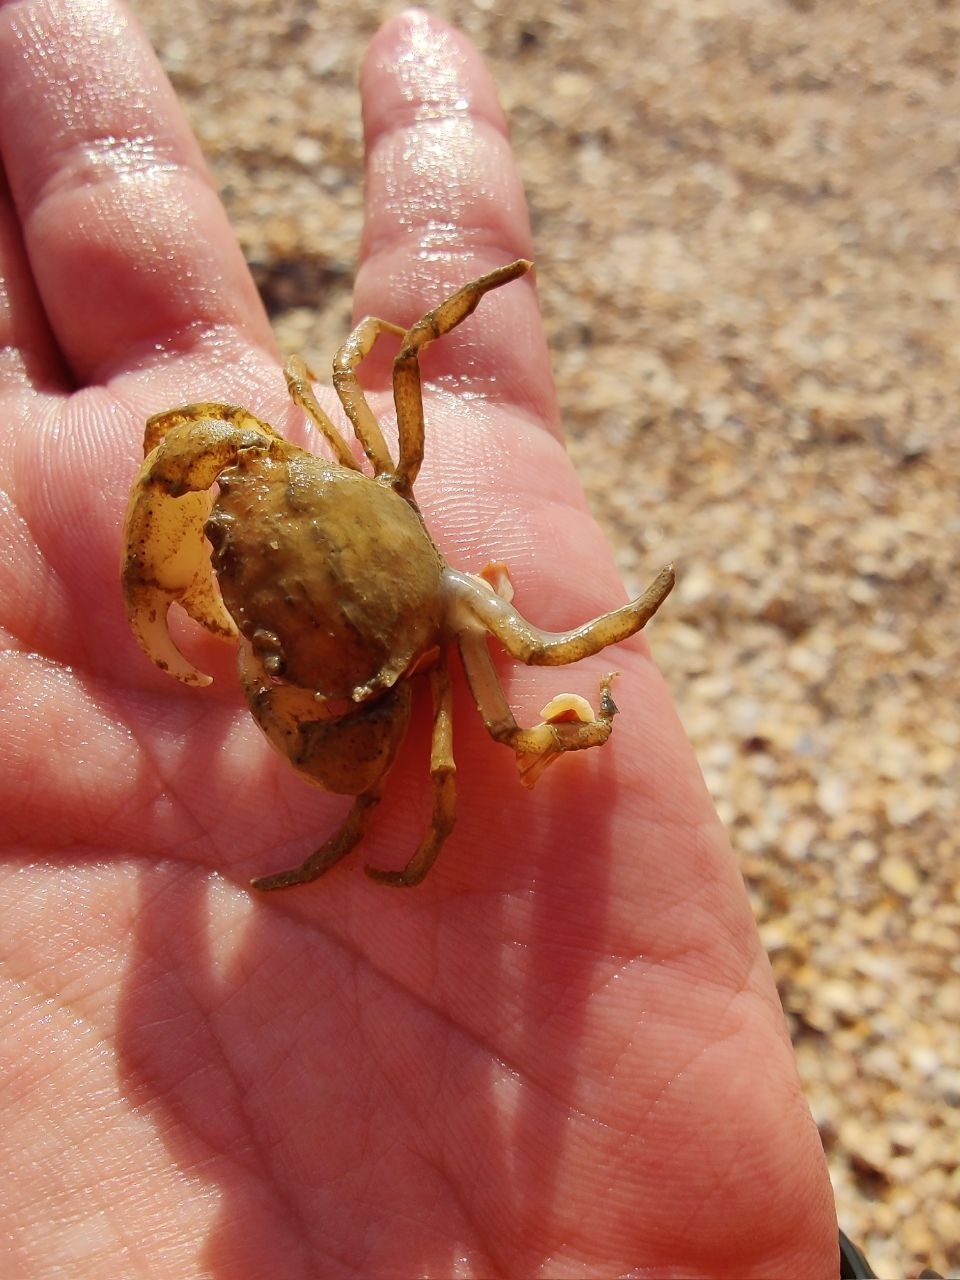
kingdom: Animalia
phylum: Arthropoda
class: Malacostraca
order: Decapoda
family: Panopeidae
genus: Rhithropanopeus
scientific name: Rhithropanopeus harrisii
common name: Dwarf crab
